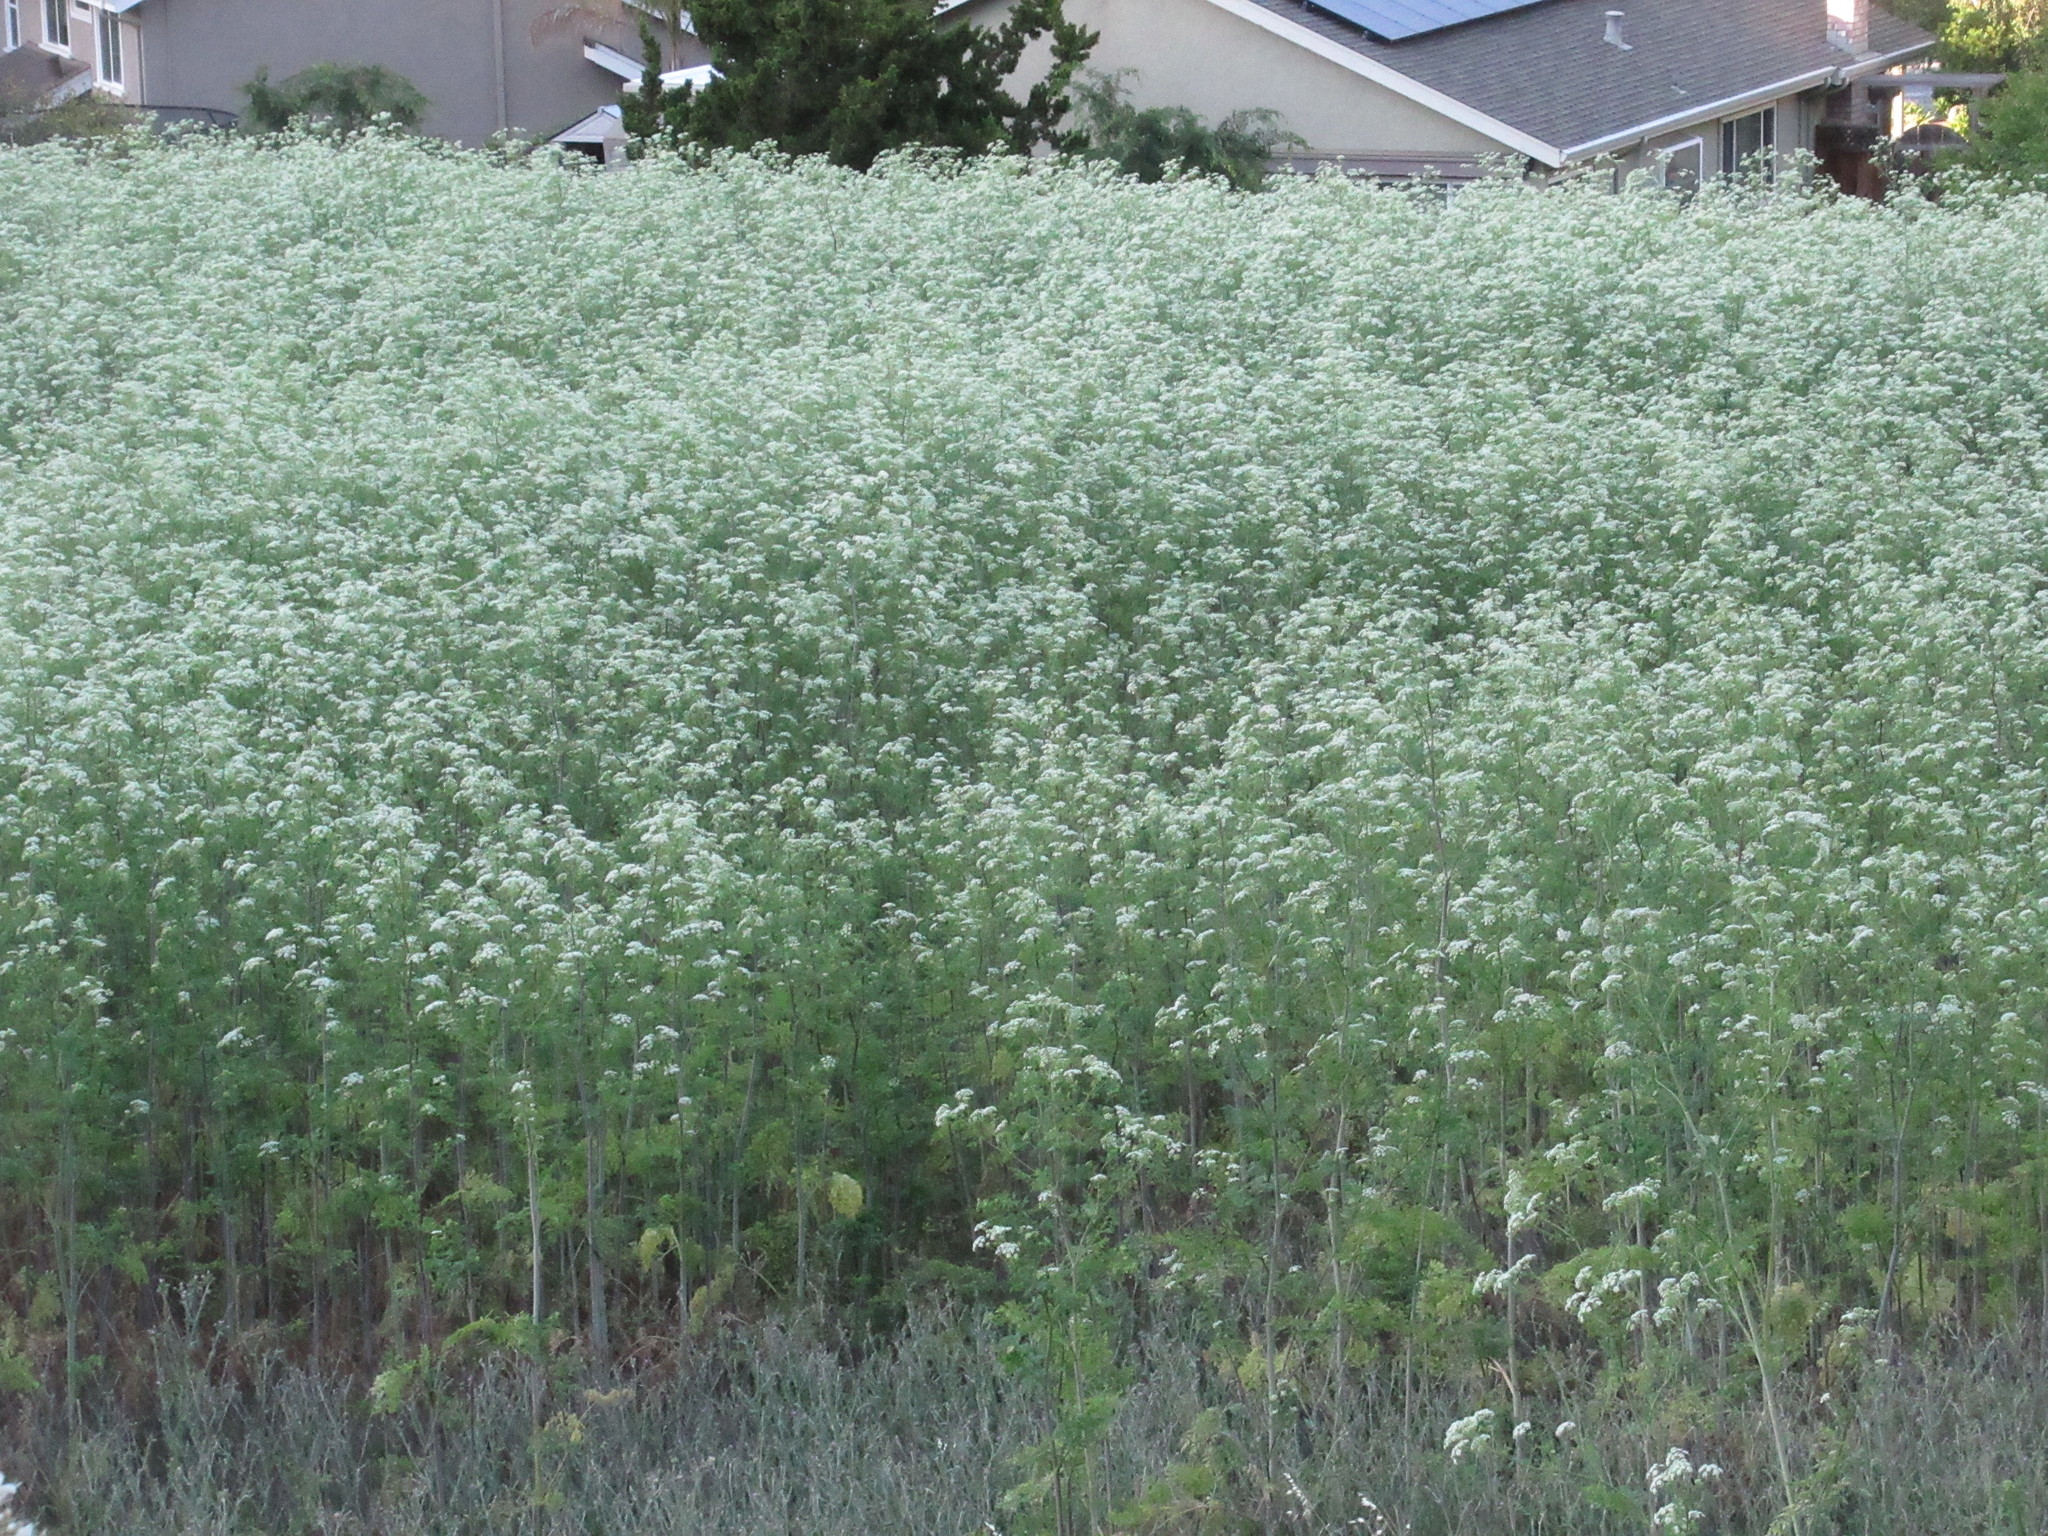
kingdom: Plantae
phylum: Tracheophyta
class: Magnoliopsida
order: Apiales
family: Apiaceae
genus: Conium
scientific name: Conium maculatum
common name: Hemlock
